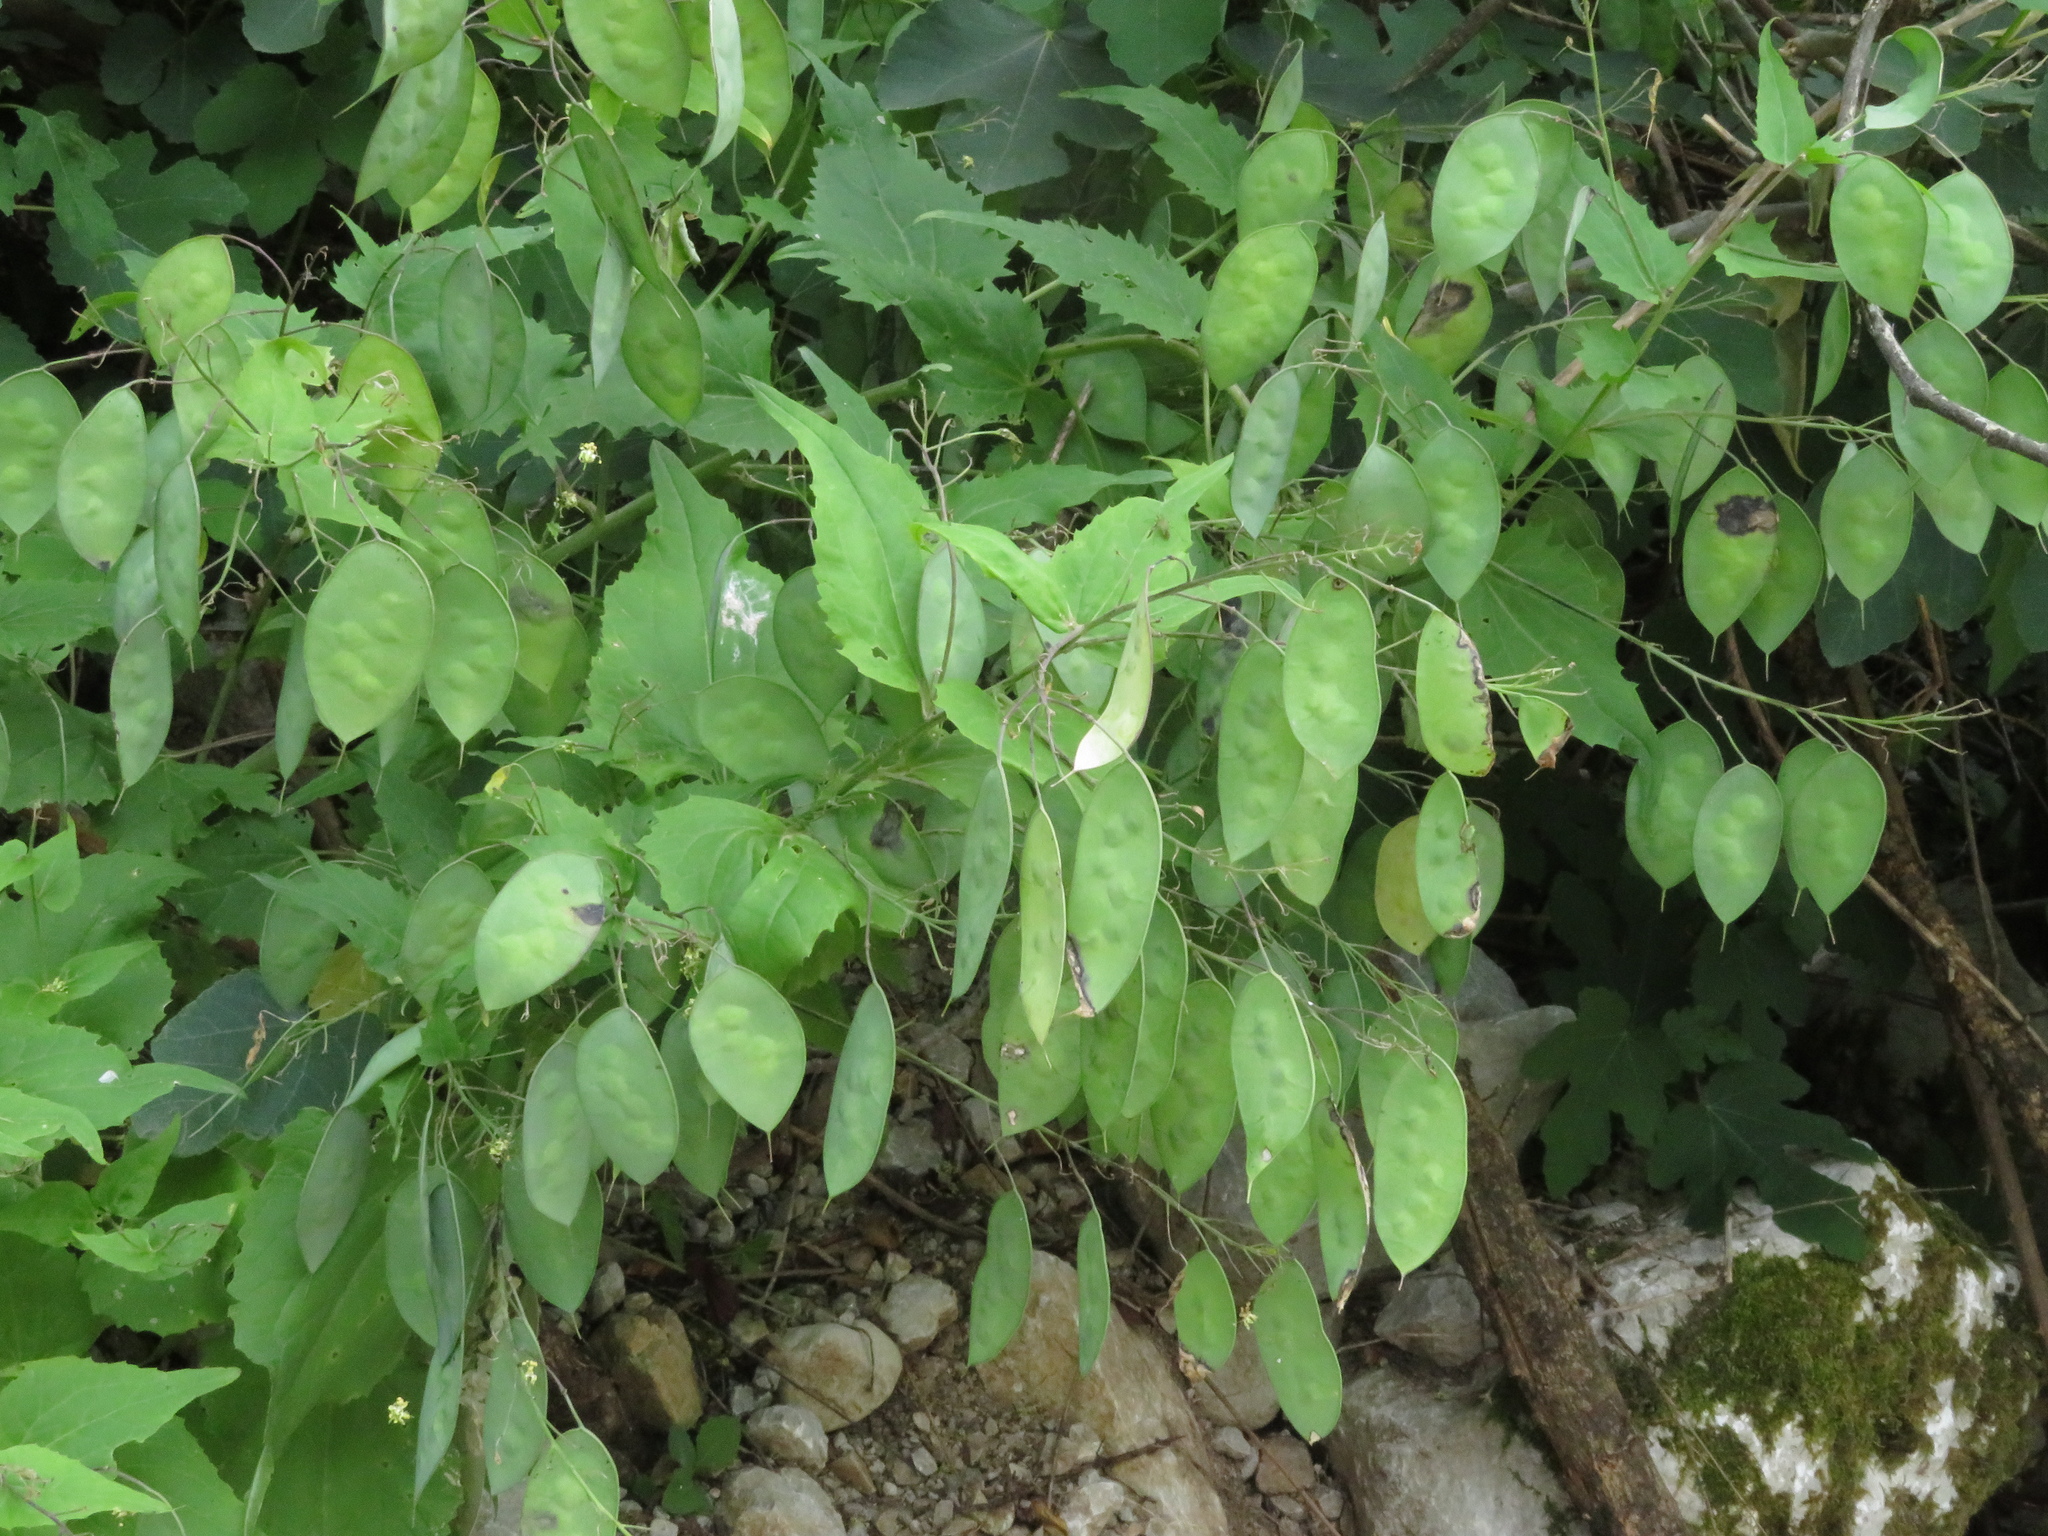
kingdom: Plantae
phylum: Tracheophyta
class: Magnoliopsida
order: Brassicales
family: Brassicaceae
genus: Lunaria
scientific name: Lunaria annua
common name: Honesty
